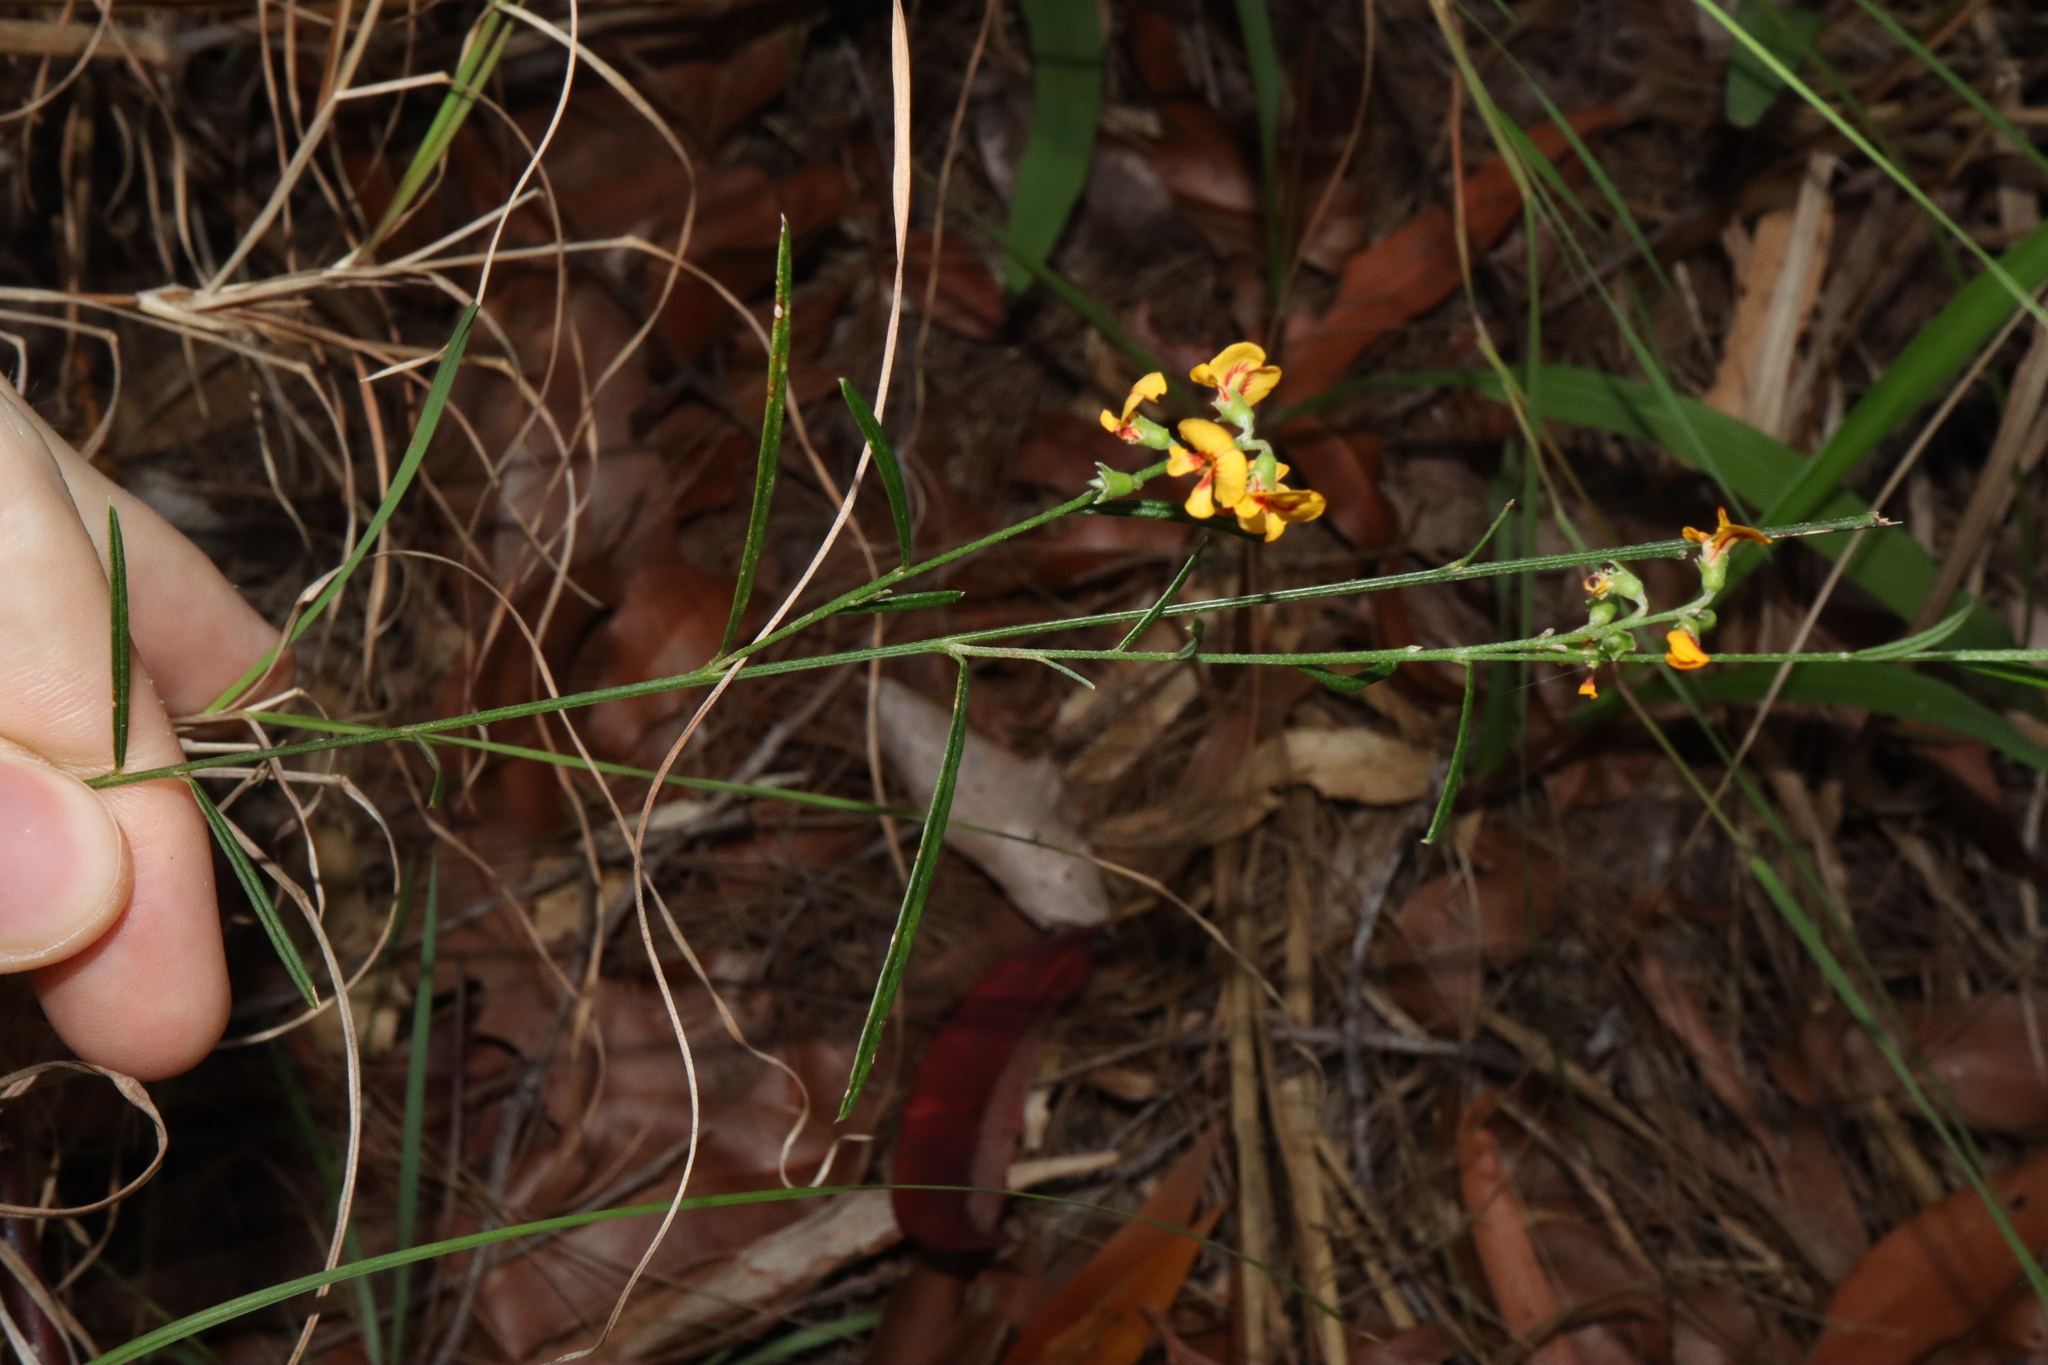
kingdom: Plantae
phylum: Tracheophyta
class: Magnoliopsida
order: Fabales
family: Fabaceae
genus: Chorizema
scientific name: Chorizema parviflorum
